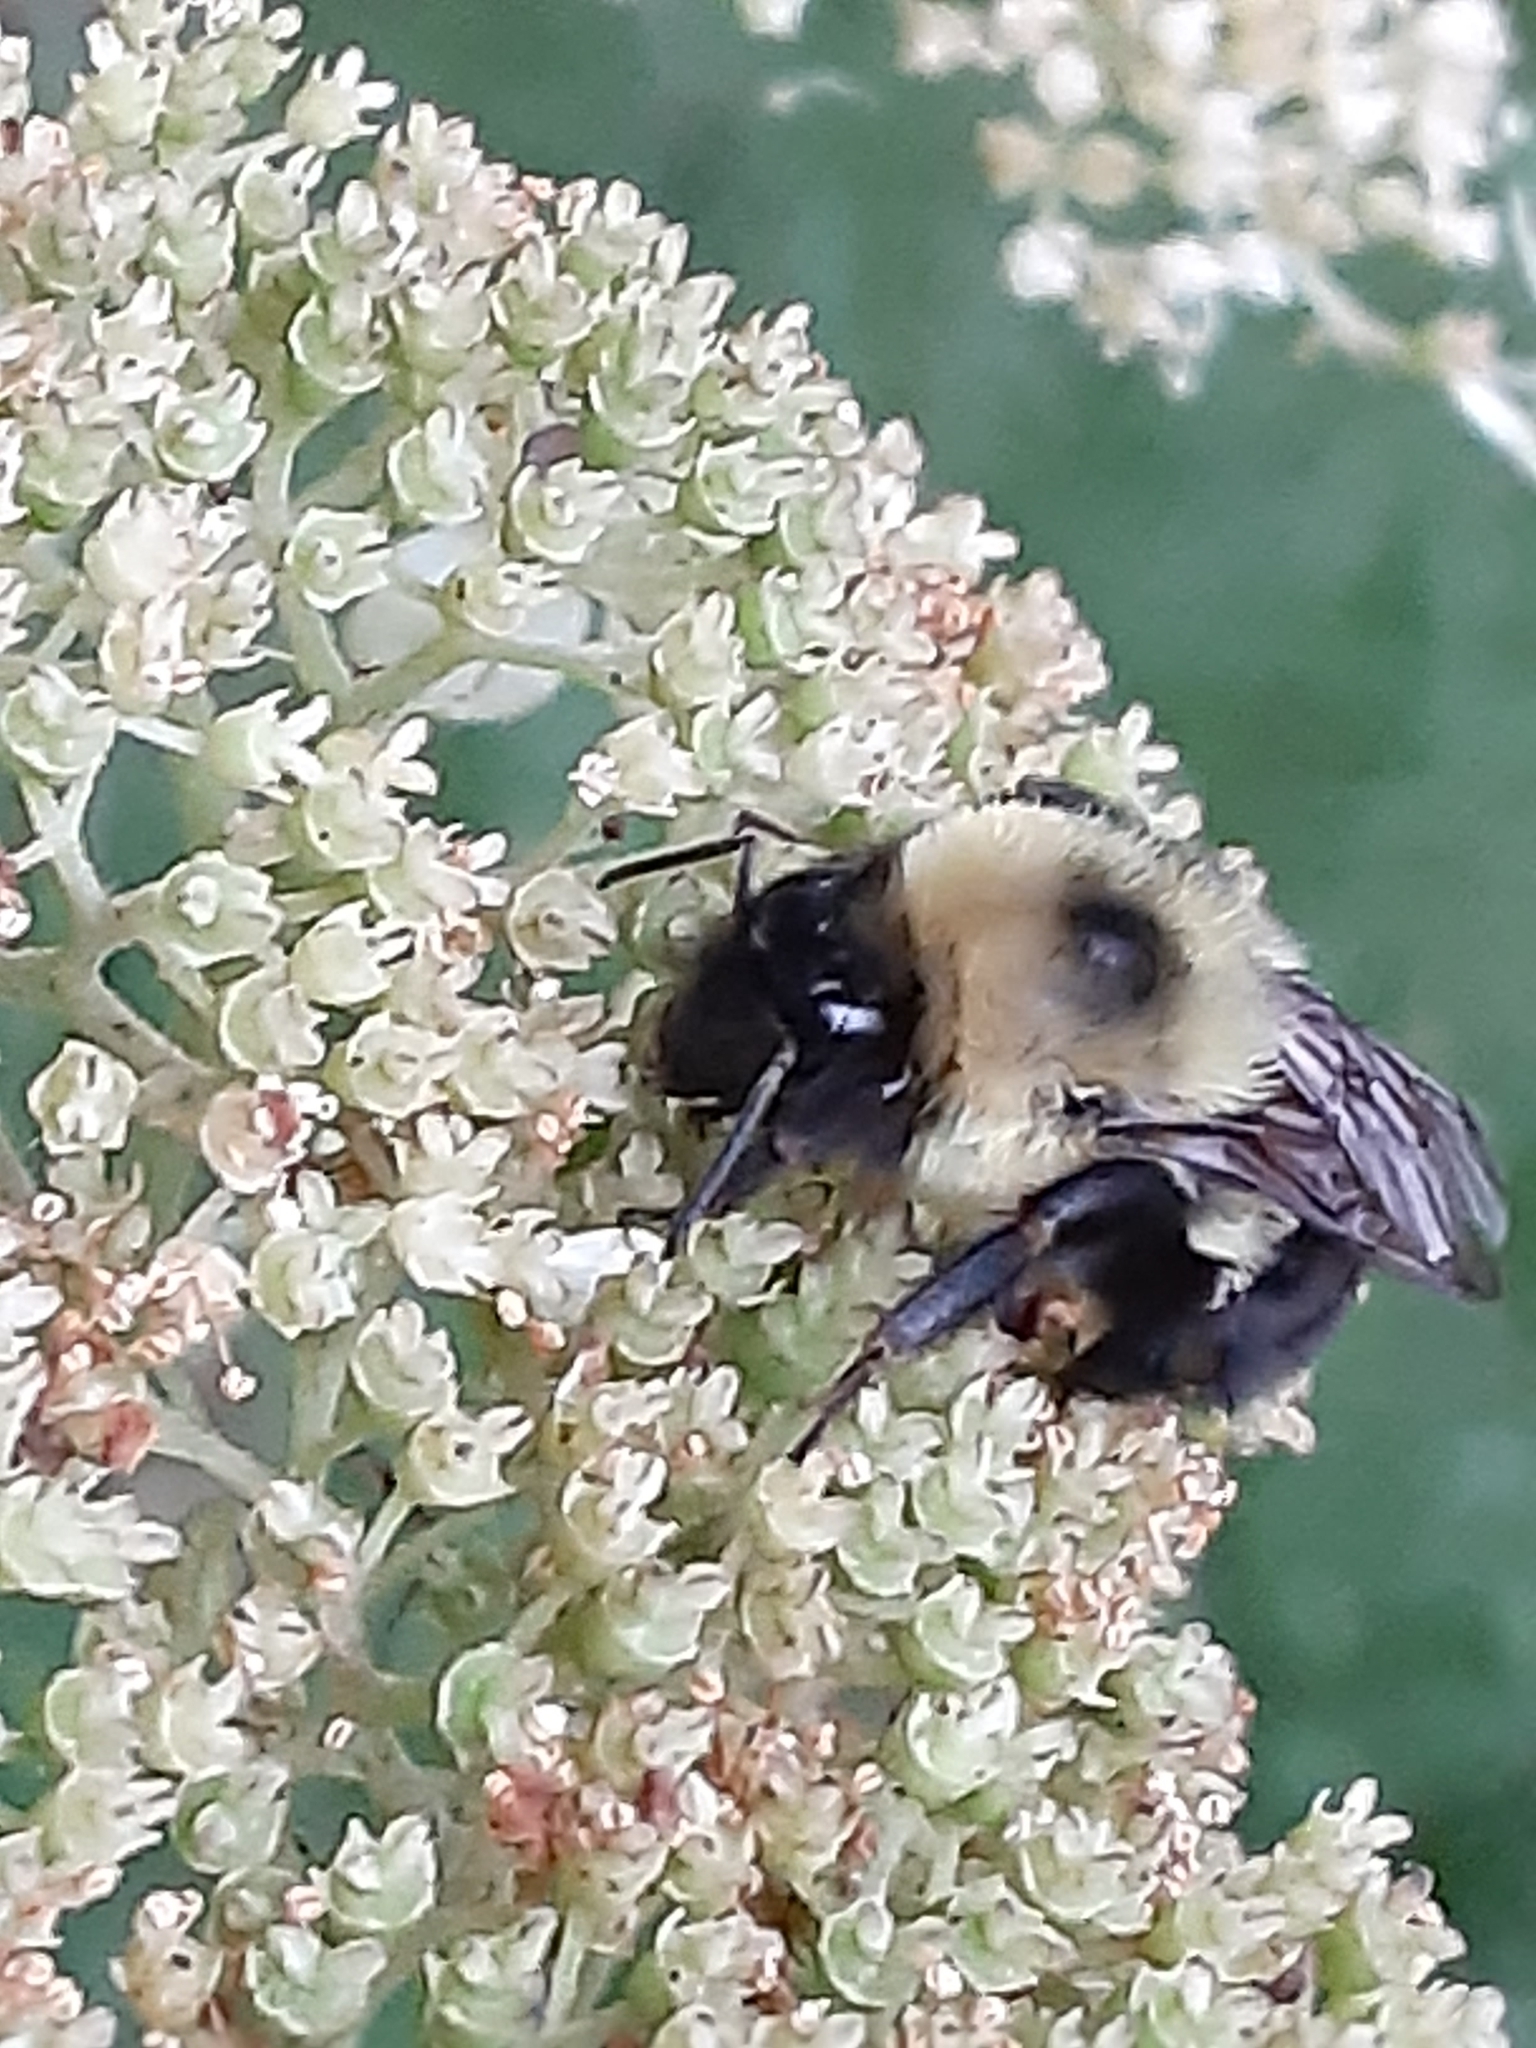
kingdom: Animalia
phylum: Arthropoda
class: Insecta
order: Hymenoptera
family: Apidae
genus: Bombus
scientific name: Bombus bimaculatus
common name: Two-spotted bumble bee
